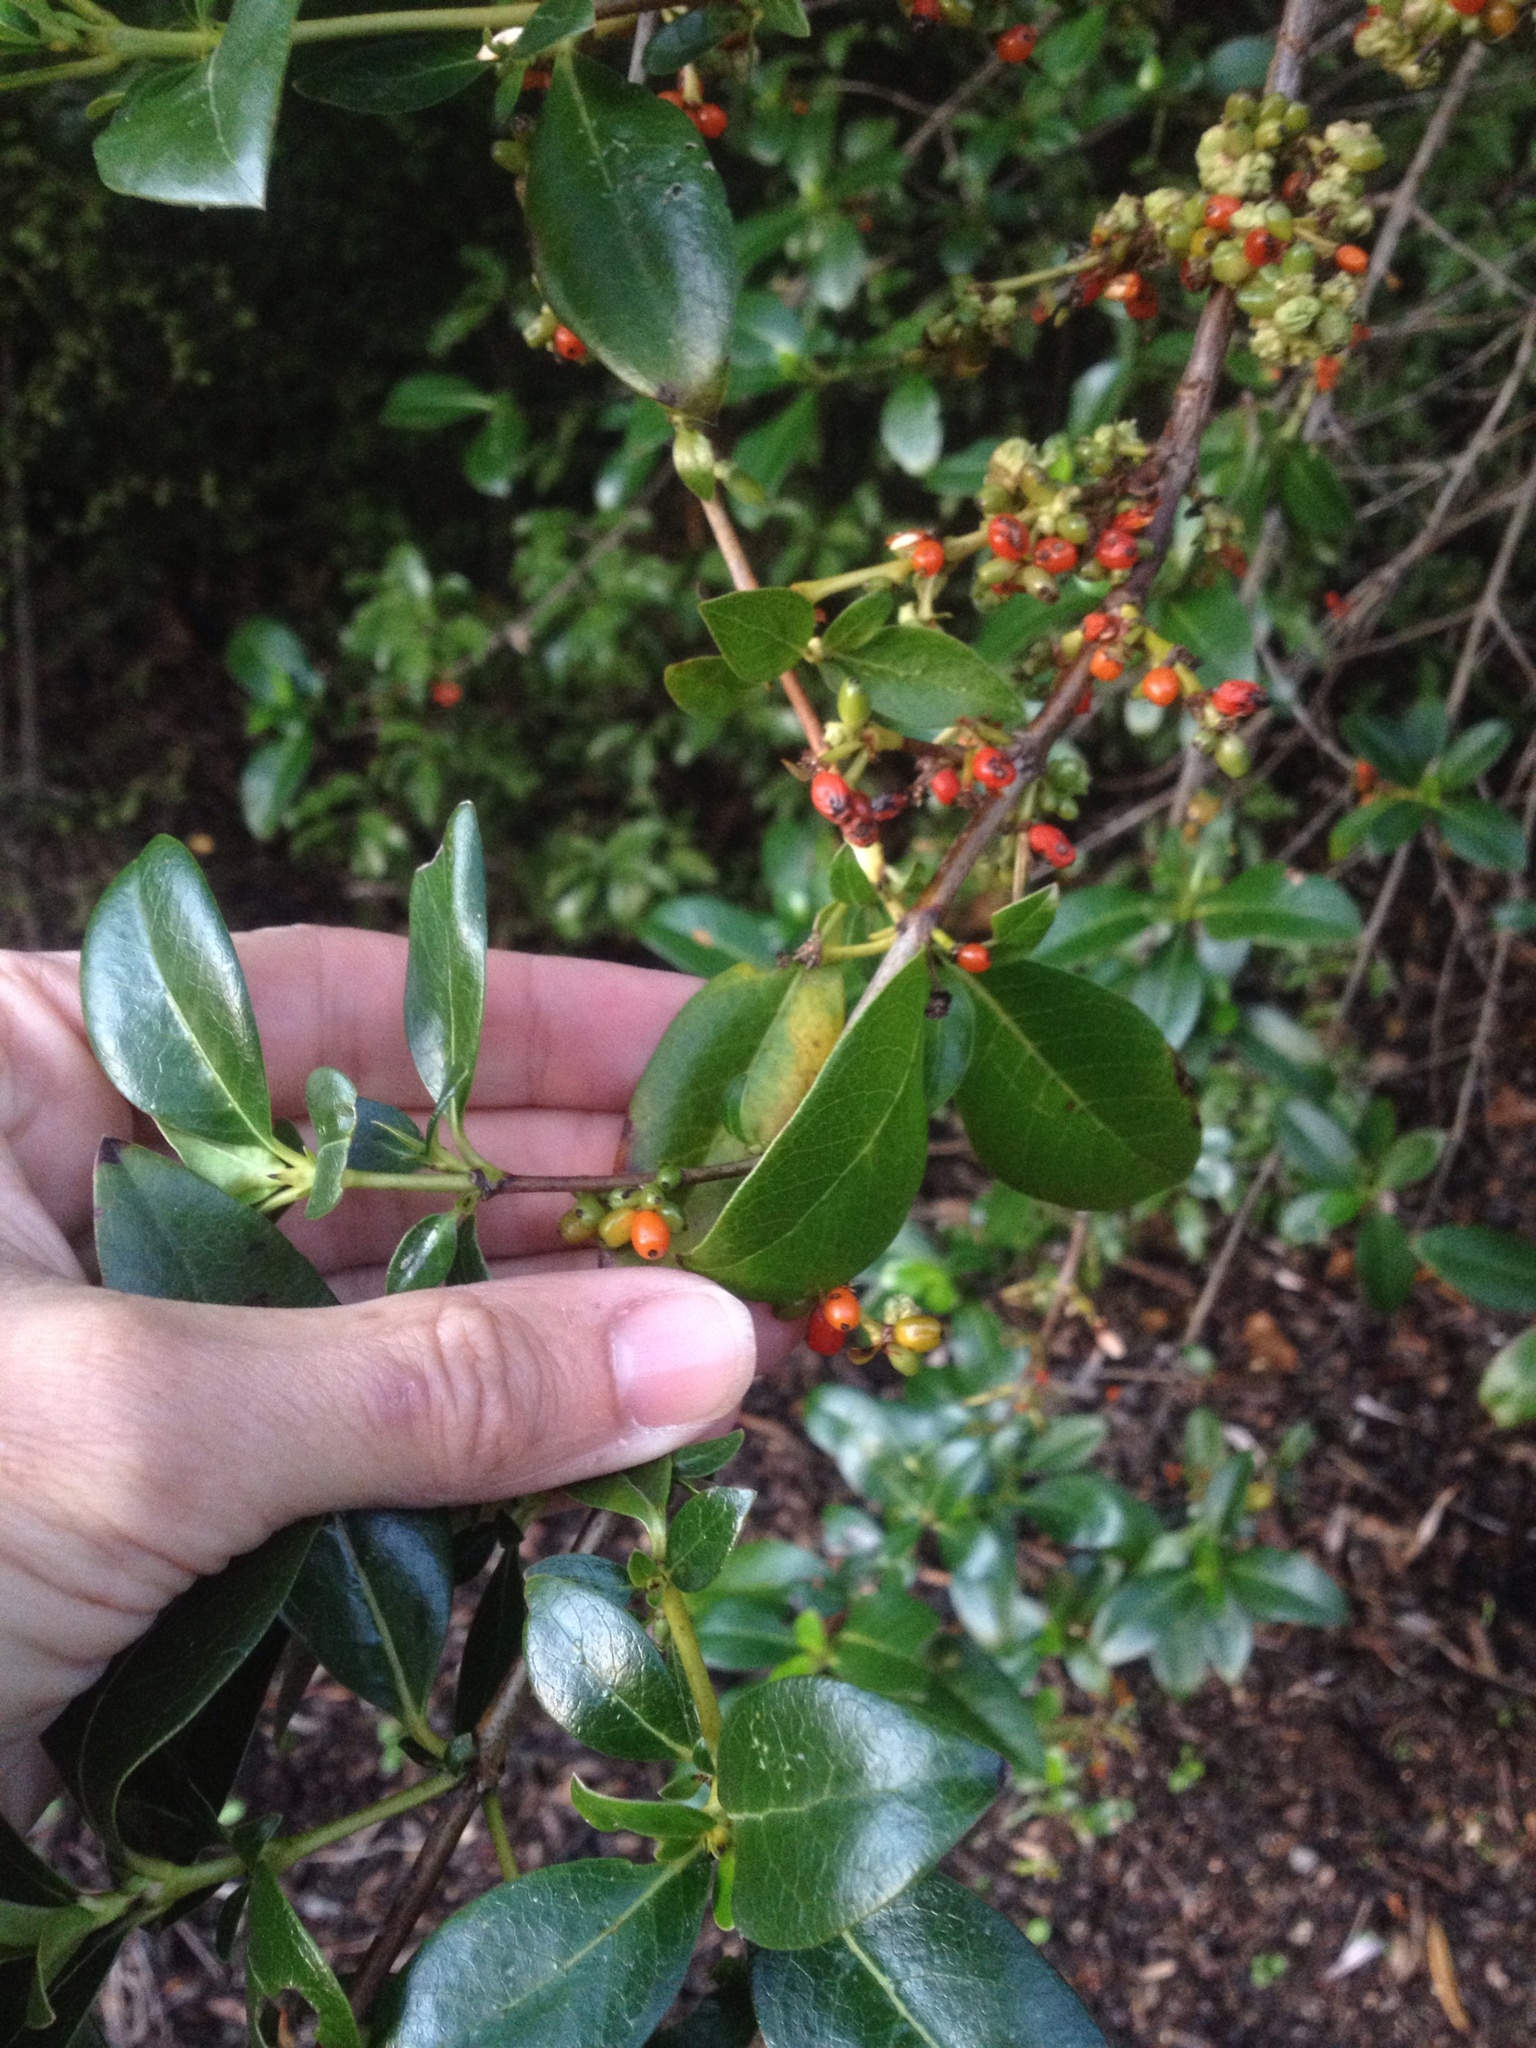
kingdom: Plantae
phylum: Tracheophyta
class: Magnoliopsida
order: Gentianales
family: Rubiaceae
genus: Coprosma
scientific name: Coprosma robusta
